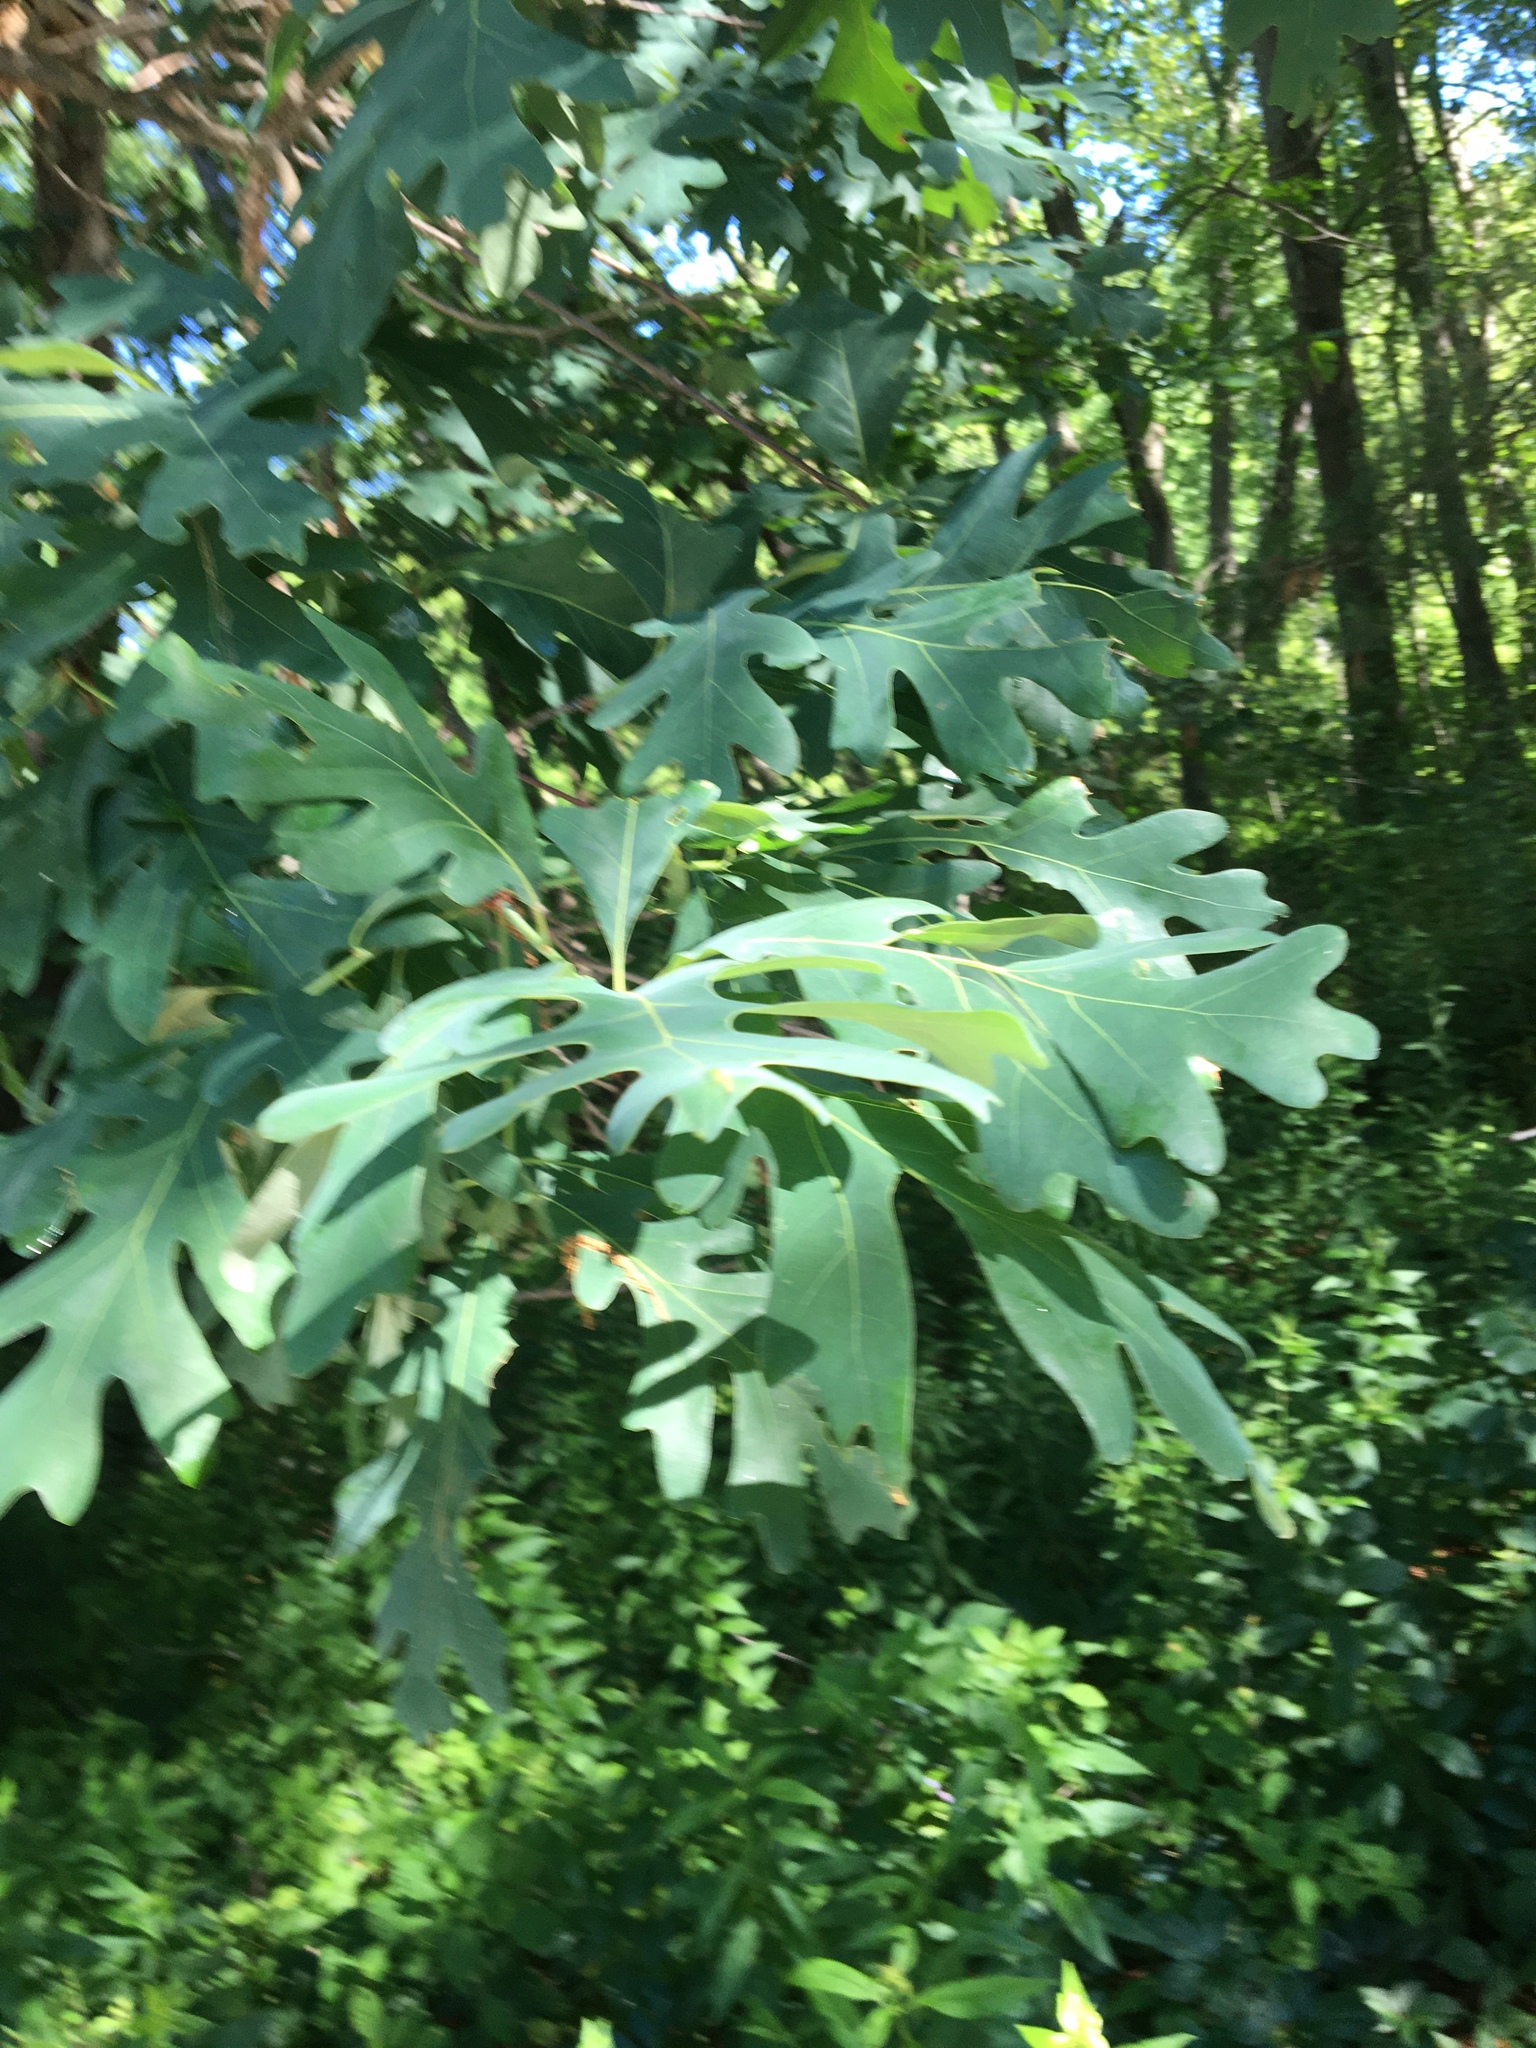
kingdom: Plantae
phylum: Tracheophyta
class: Magnoliopsida
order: Fagales
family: Fagaceae
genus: Quercus
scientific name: Quercus alba
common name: White oak
